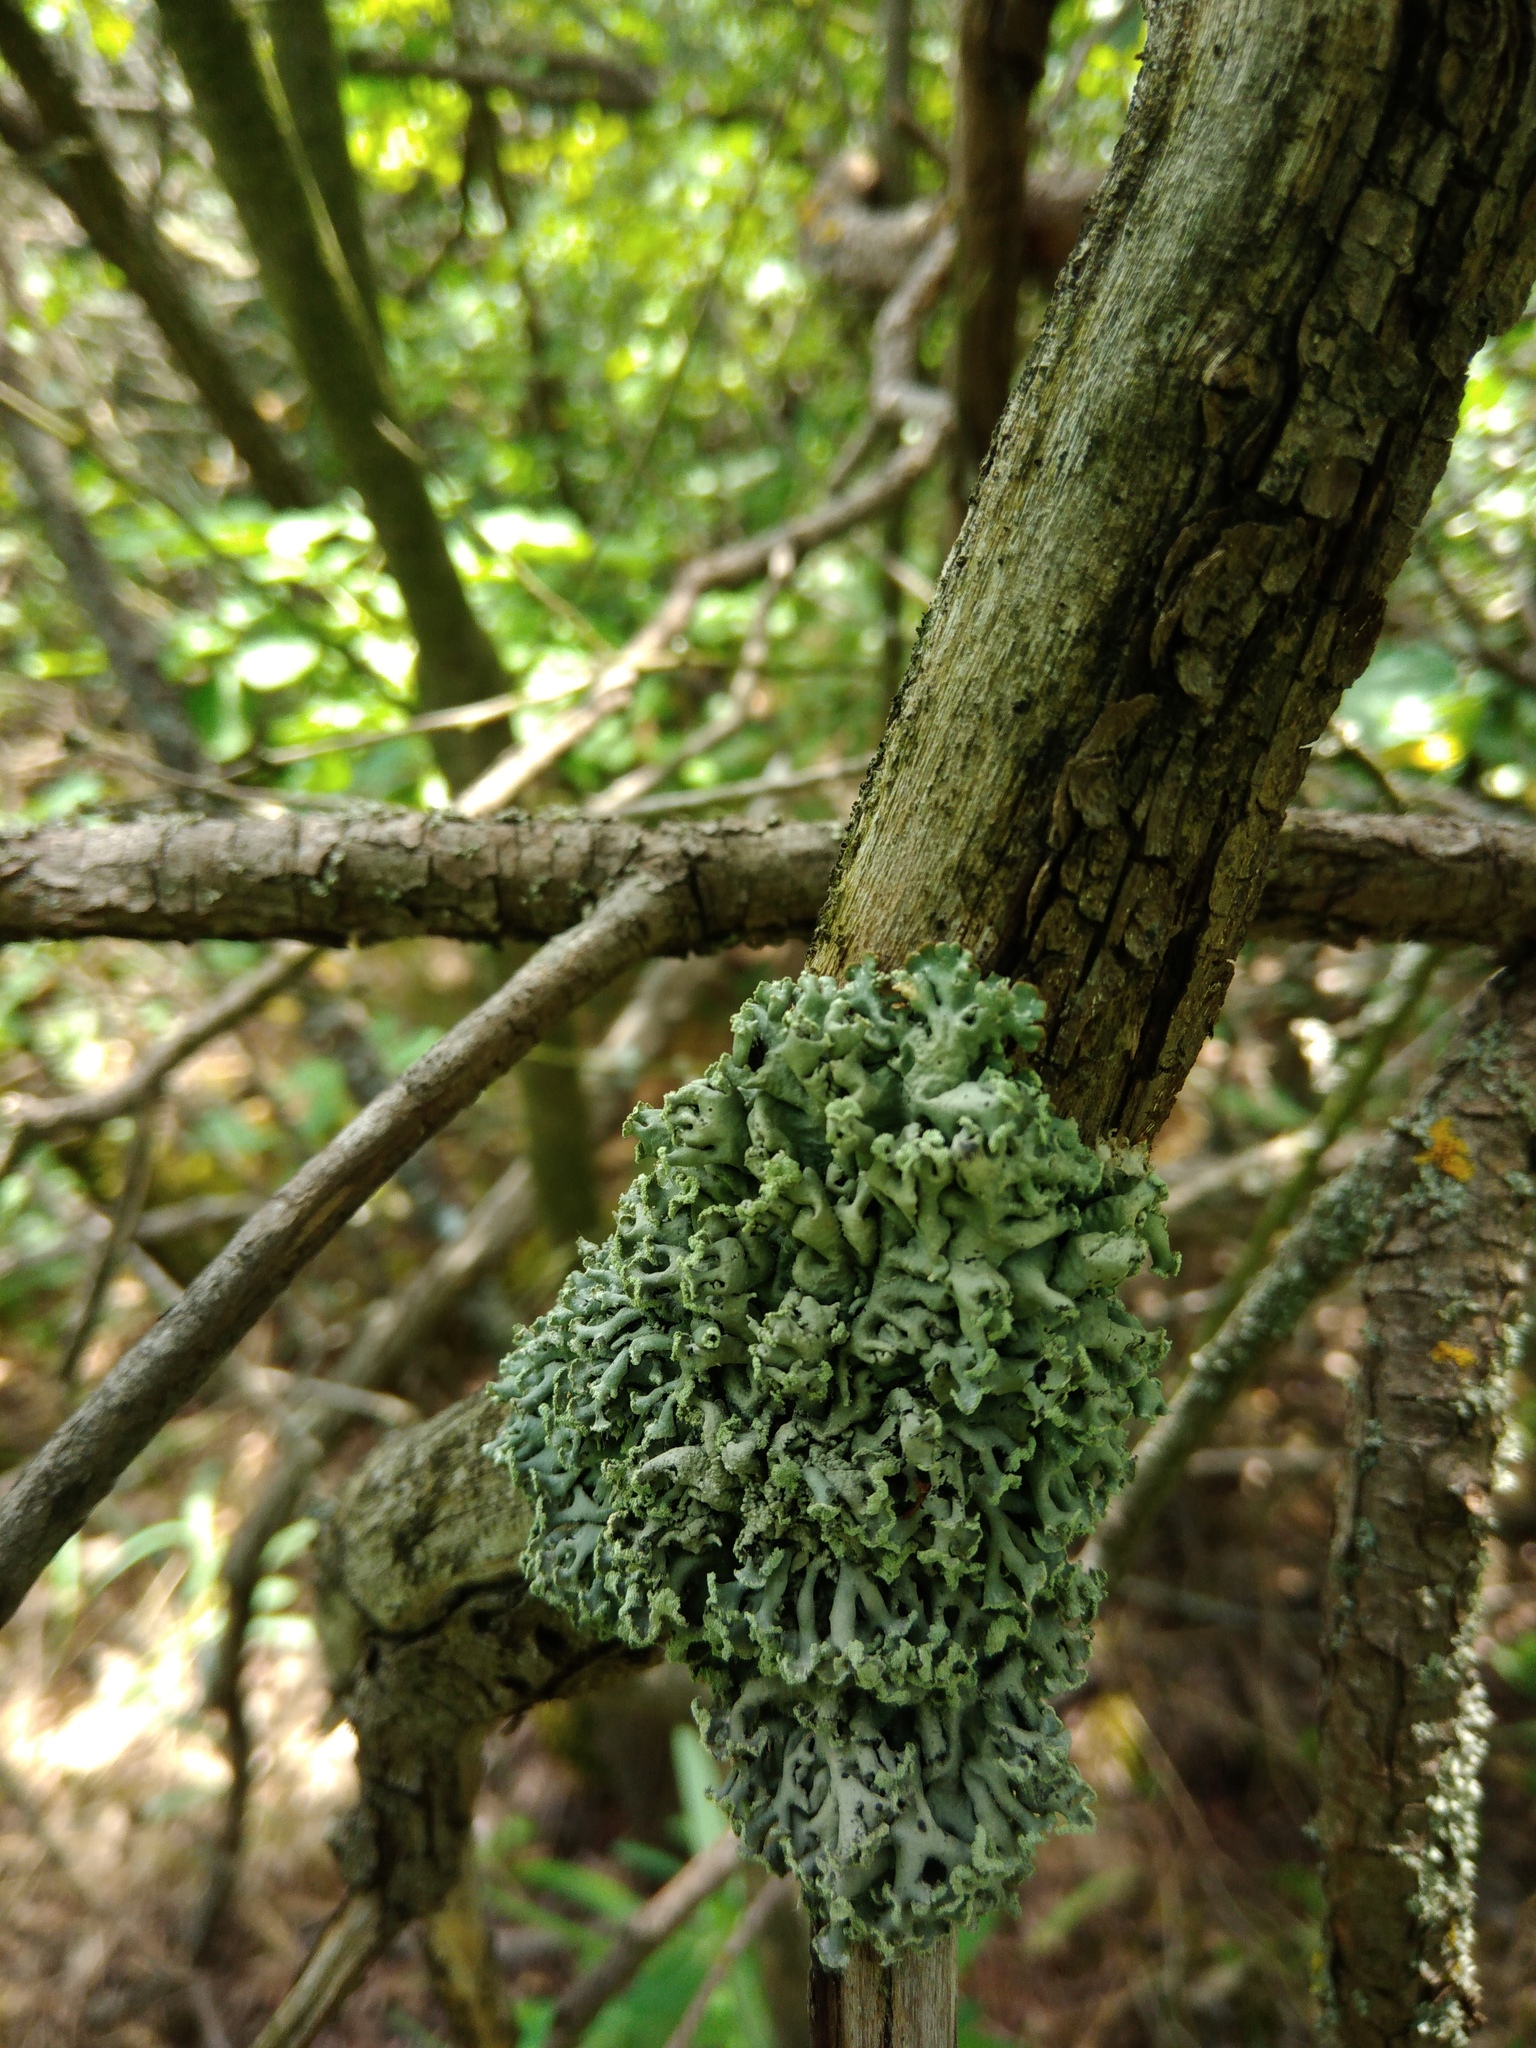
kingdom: Fungi
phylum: Ascomycota
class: Lecanoromycetes
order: Lecanorales
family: Parmeliaceae
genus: Hypogymnia
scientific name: Hypogymnia physodes
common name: Dark crottle
